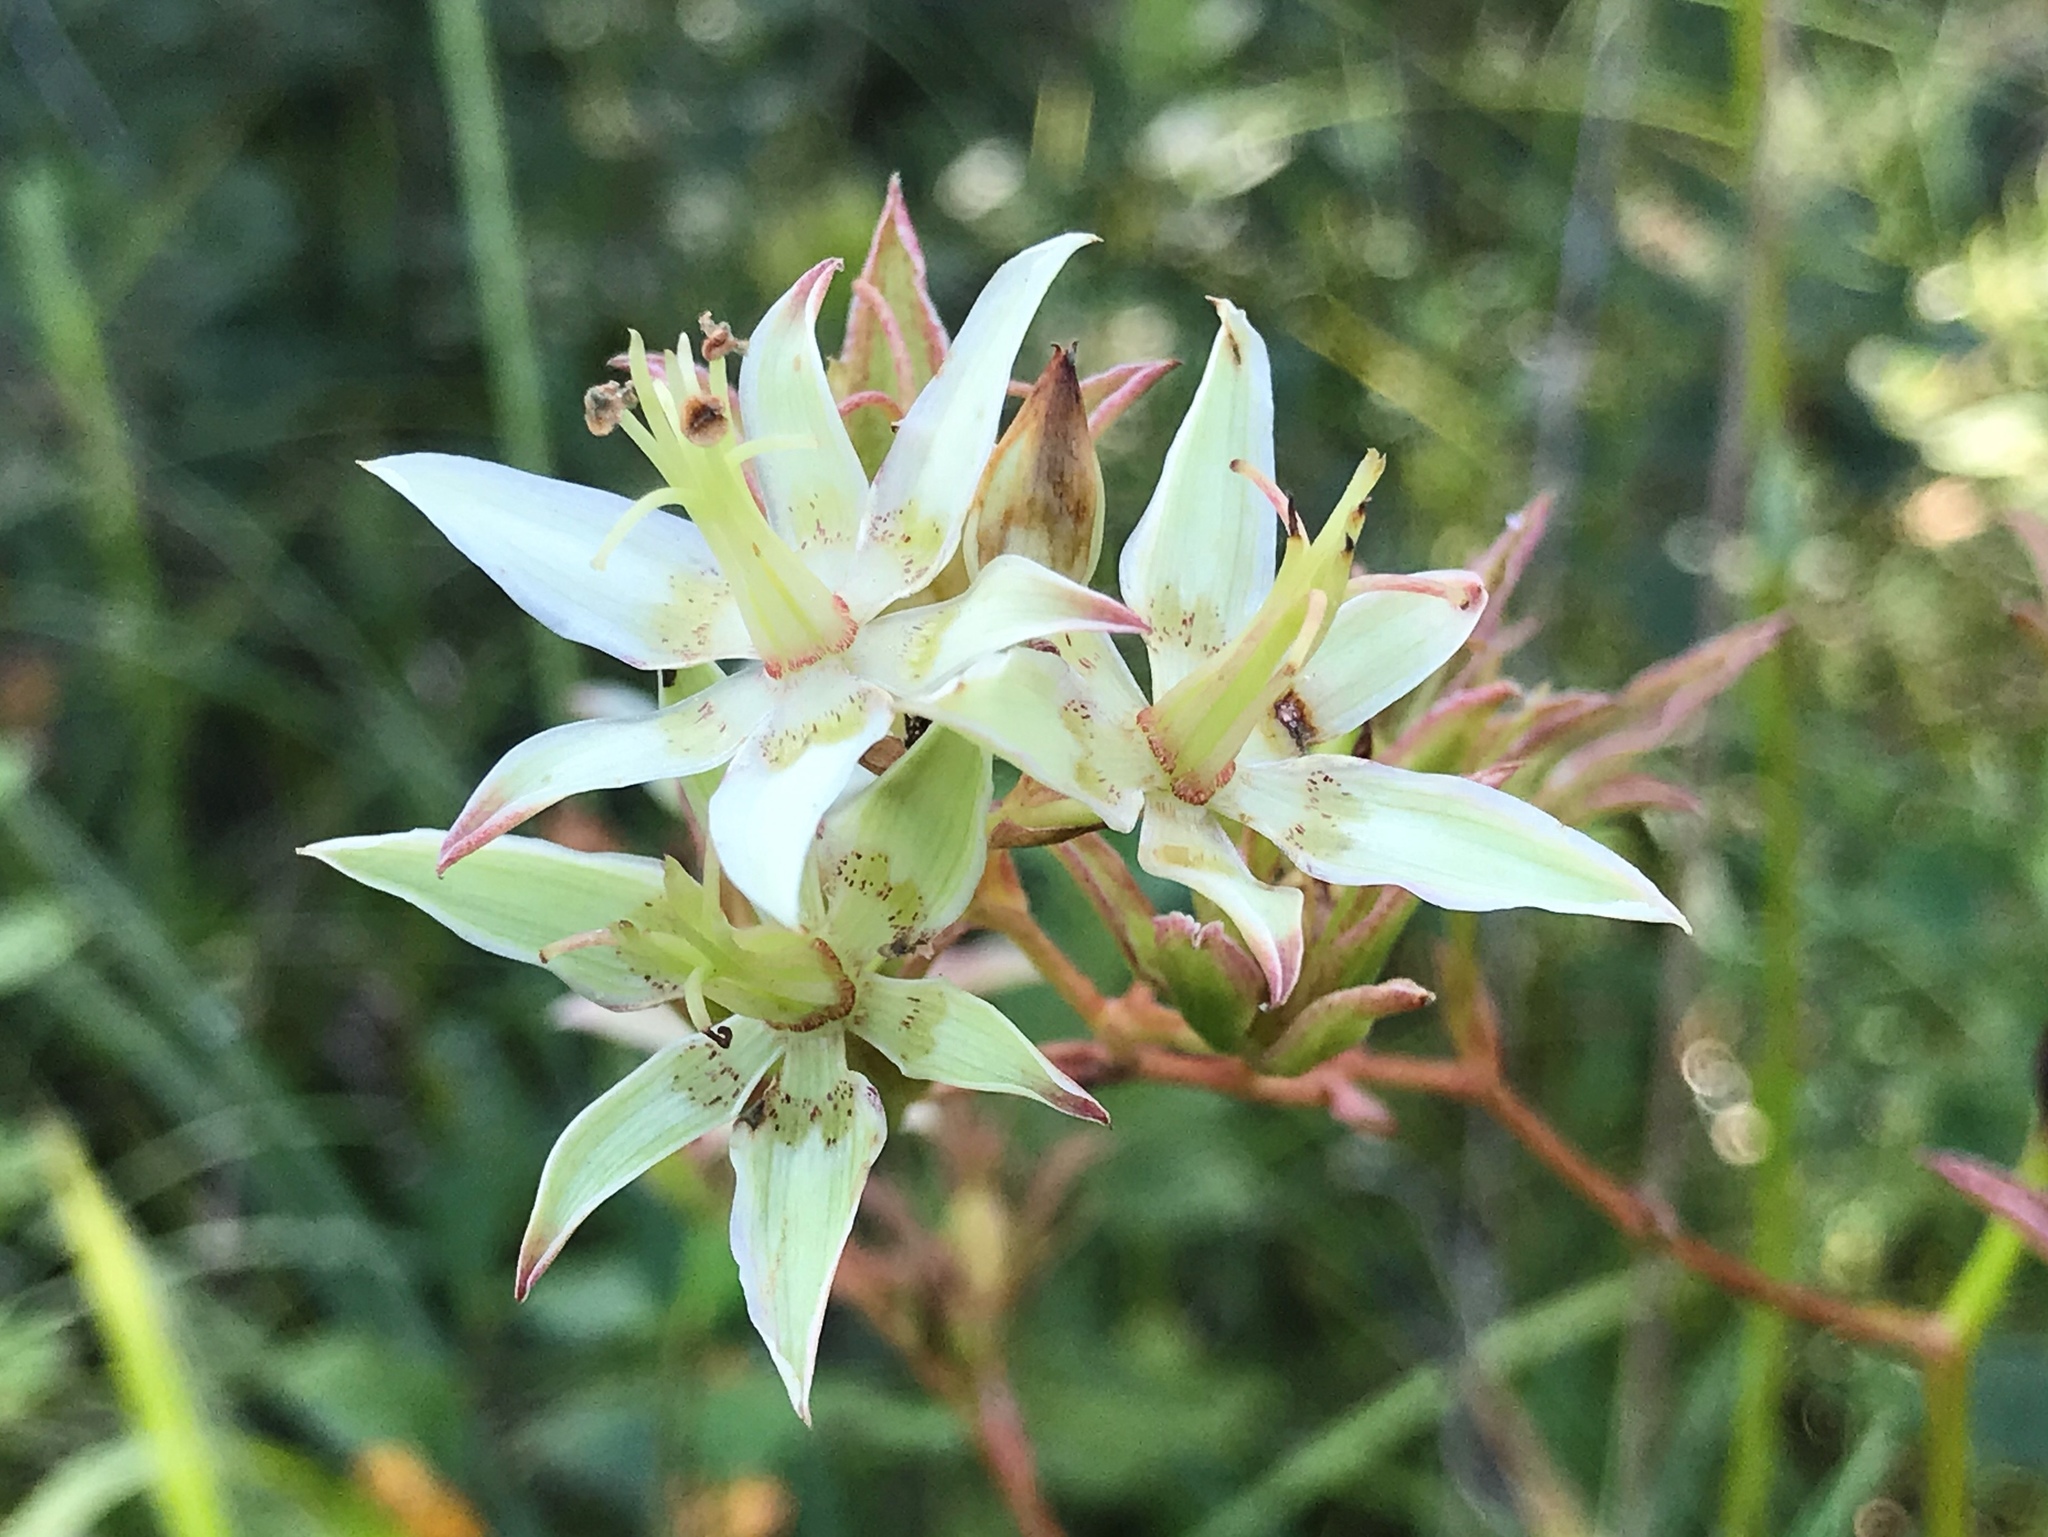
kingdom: Plantae
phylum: Tracheophyta
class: Liliopsida
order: Liliales
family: Melanthiaceae
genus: Zigadenus
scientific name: Zigadenus glaberrimus
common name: Sandbog death camas
